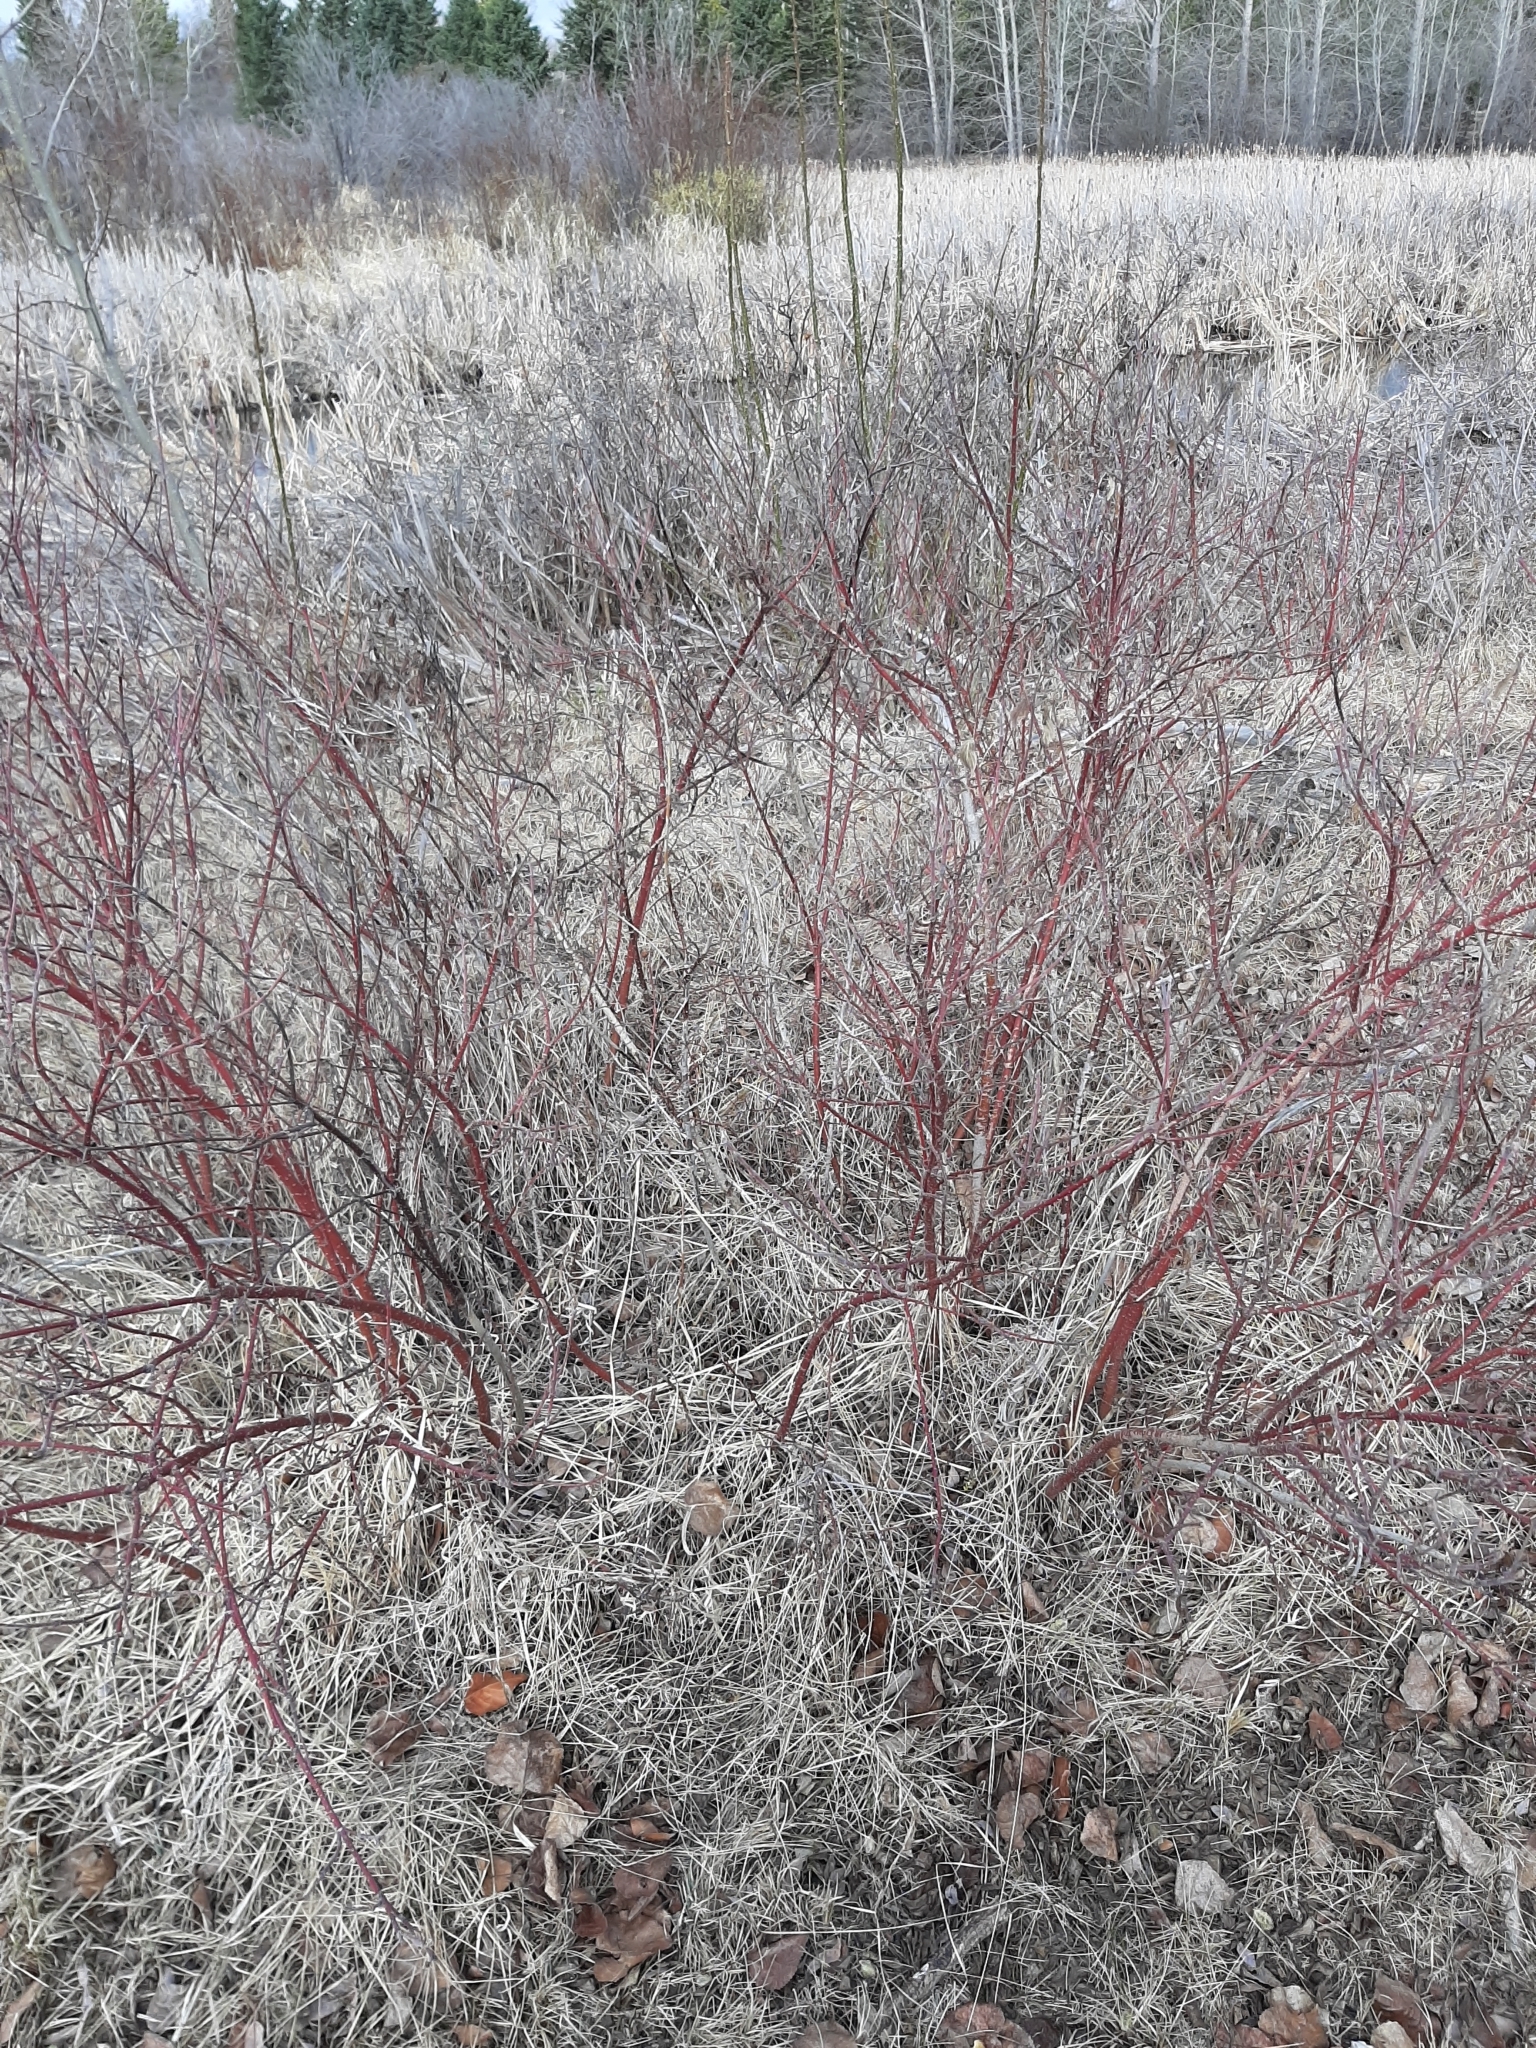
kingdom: Plantae
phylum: Tracheophyta
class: Magnoliopsida
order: Cornales
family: Cornaceae
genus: Cornus
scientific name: Cornus sericea
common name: Red-osier dogwood
